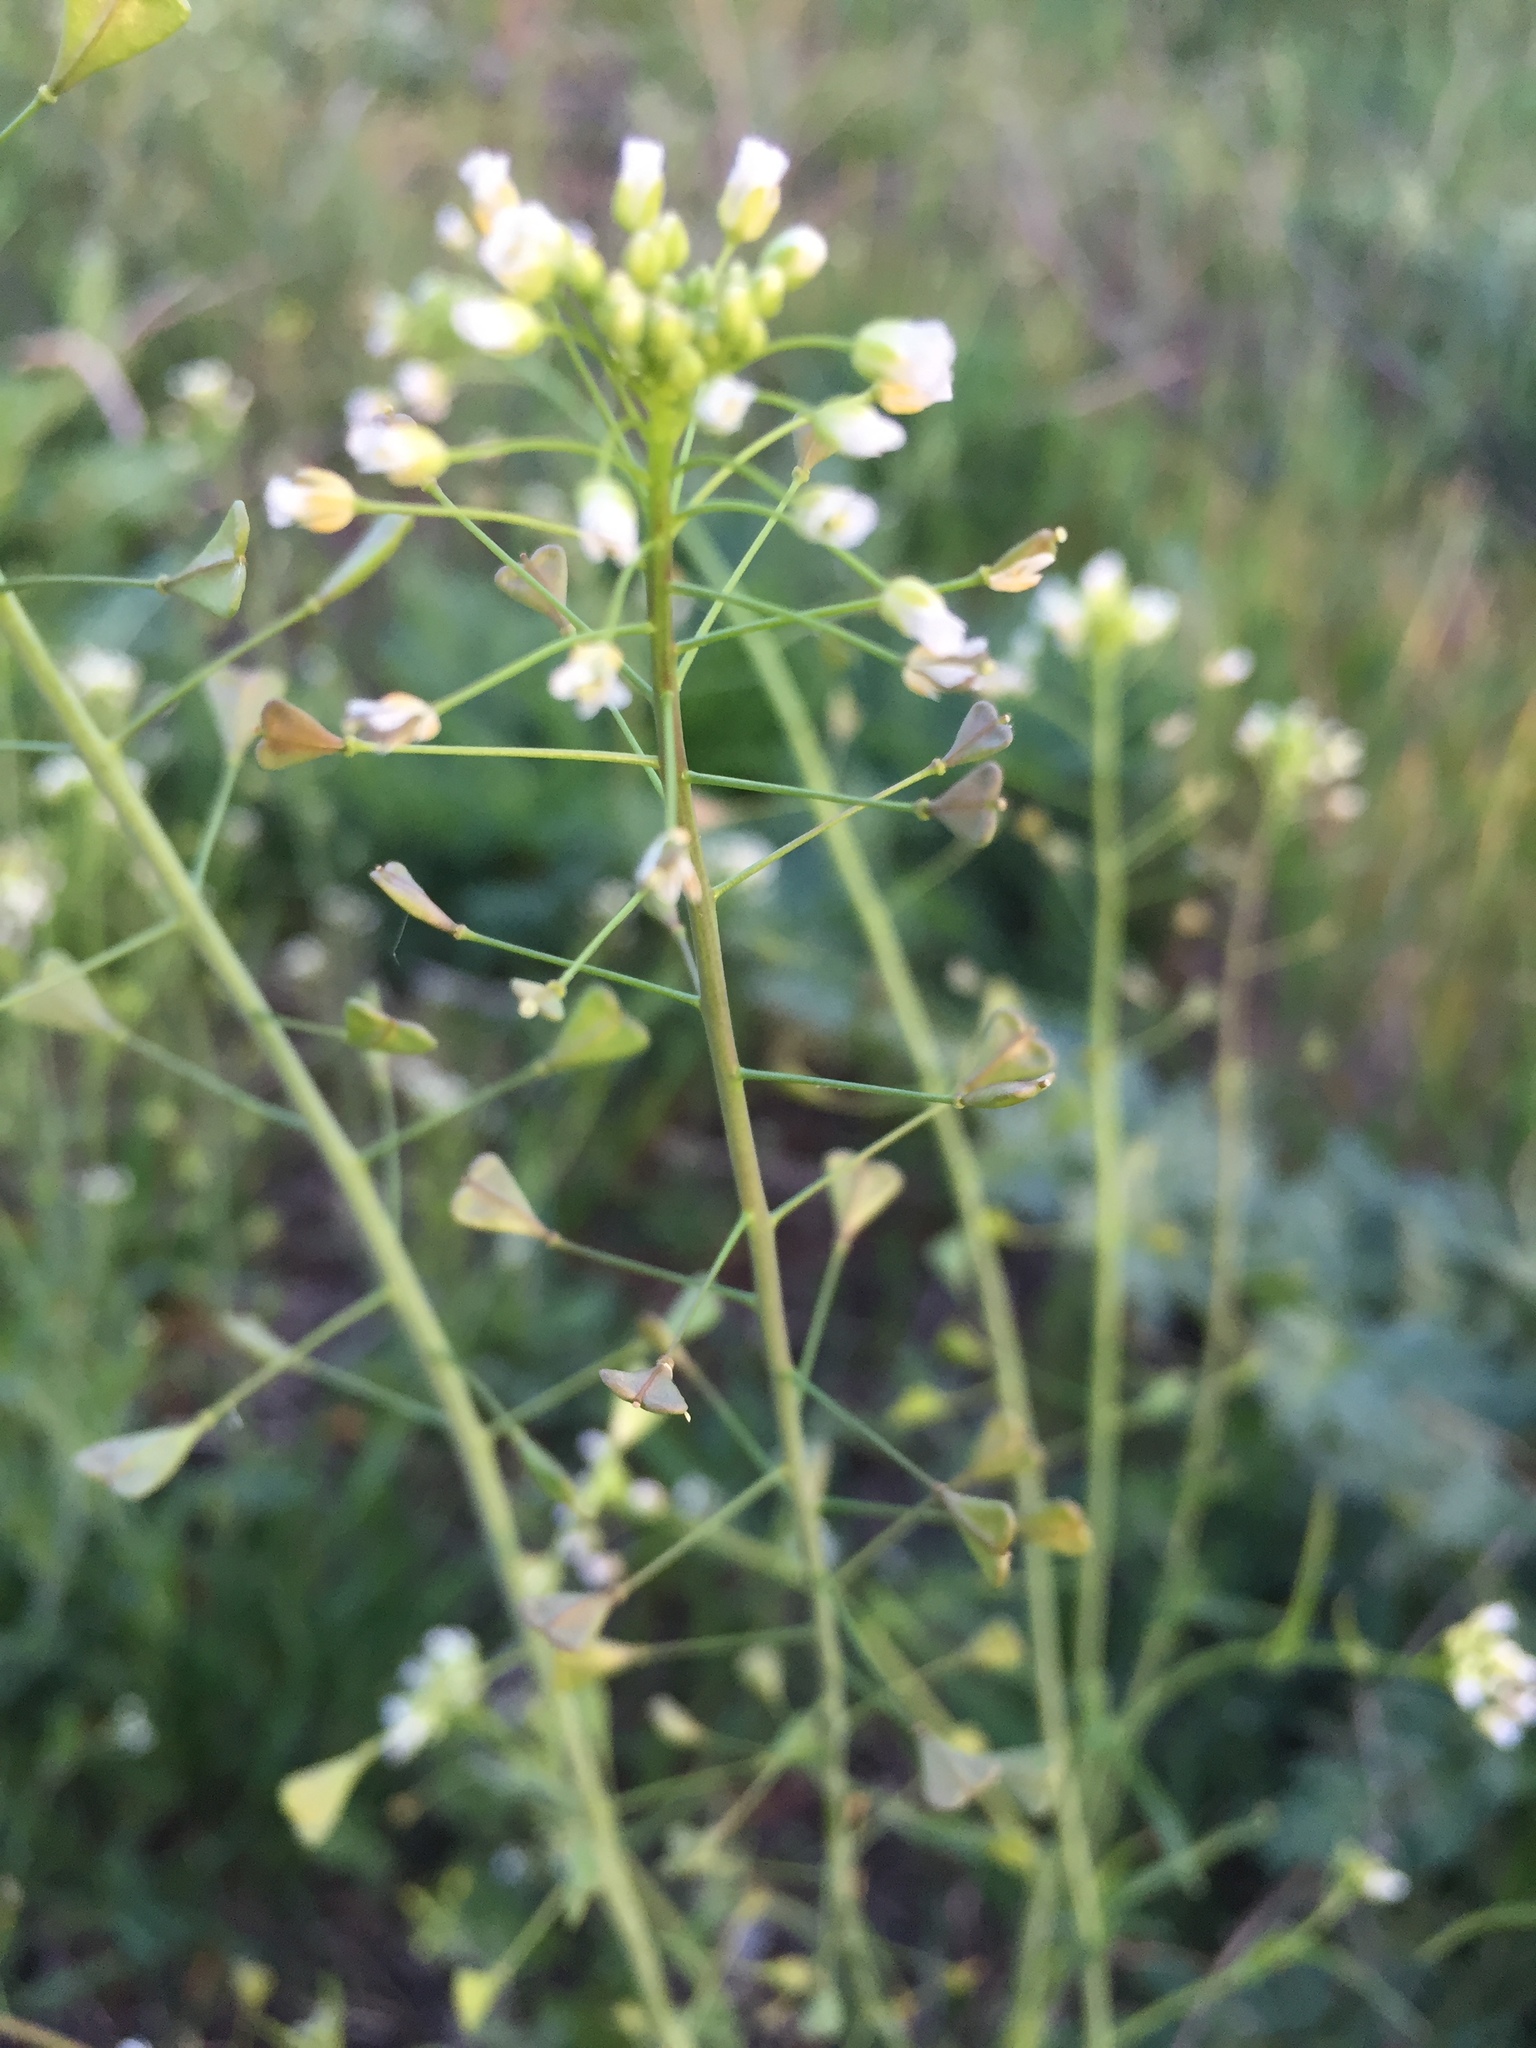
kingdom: Plantae
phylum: Tracheophyta
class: Magnoliopsida
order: Brassicales
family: Brassicaceae
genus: Capsella
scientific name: Capsella bursa-pastoris
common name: Shepherd's purse
